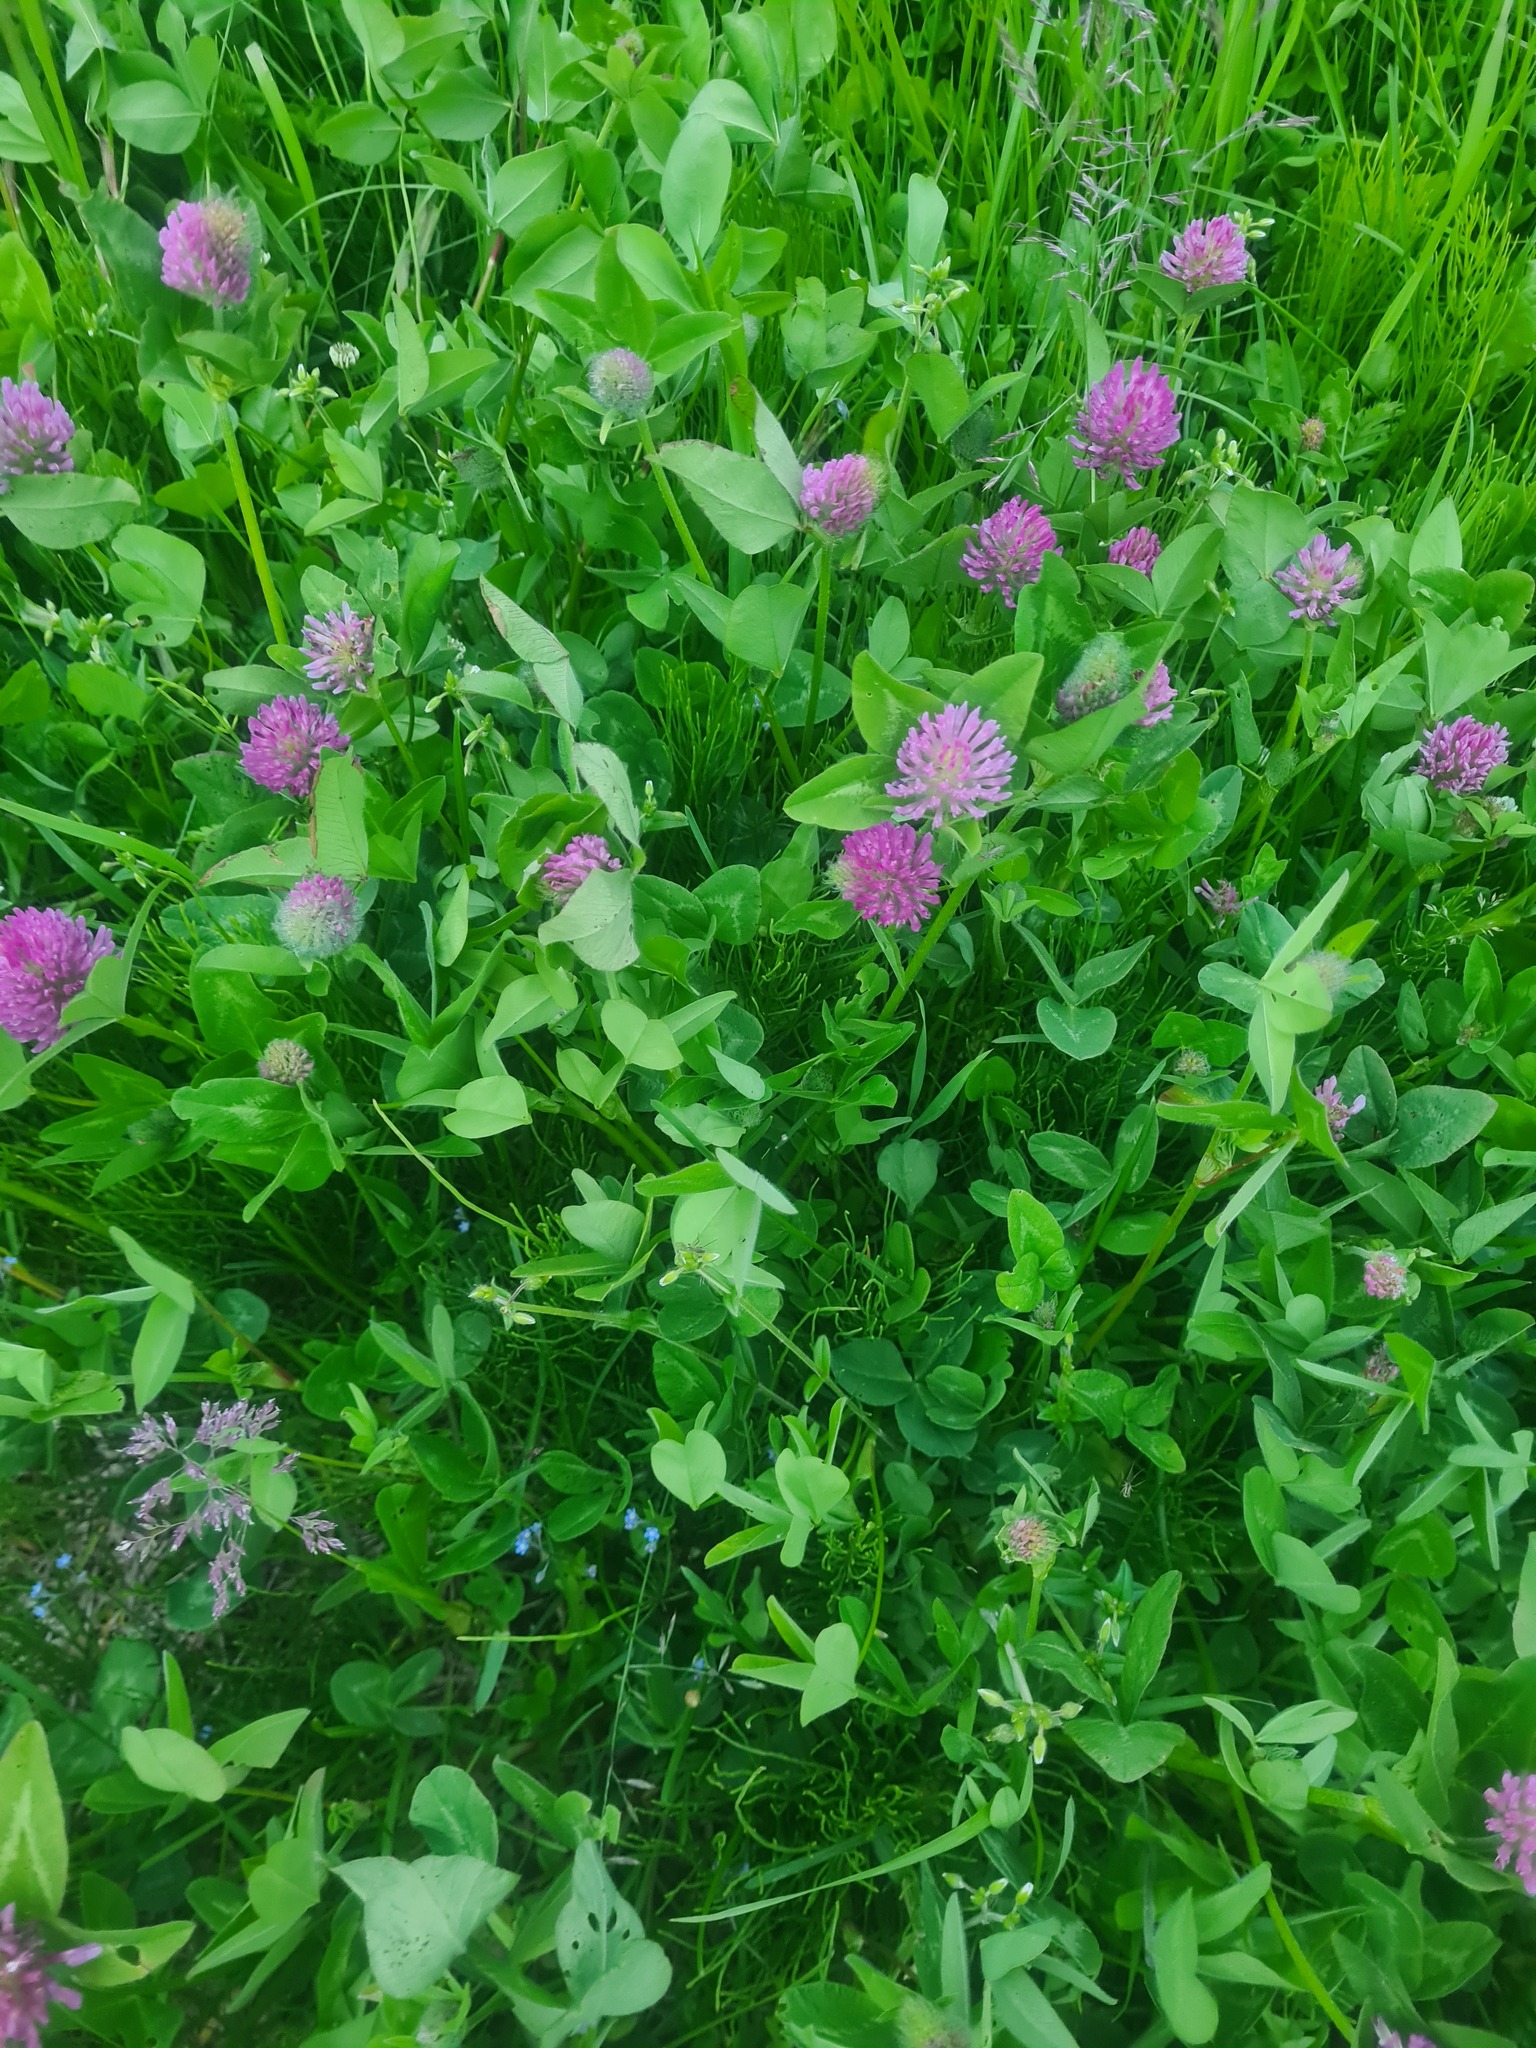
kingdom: Plantae
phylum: Tracheophyta
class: Magnoliopsida
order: Fabales
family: Fabaceae
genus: Trifolium
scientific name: Trifolium pratense
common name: Red clover
